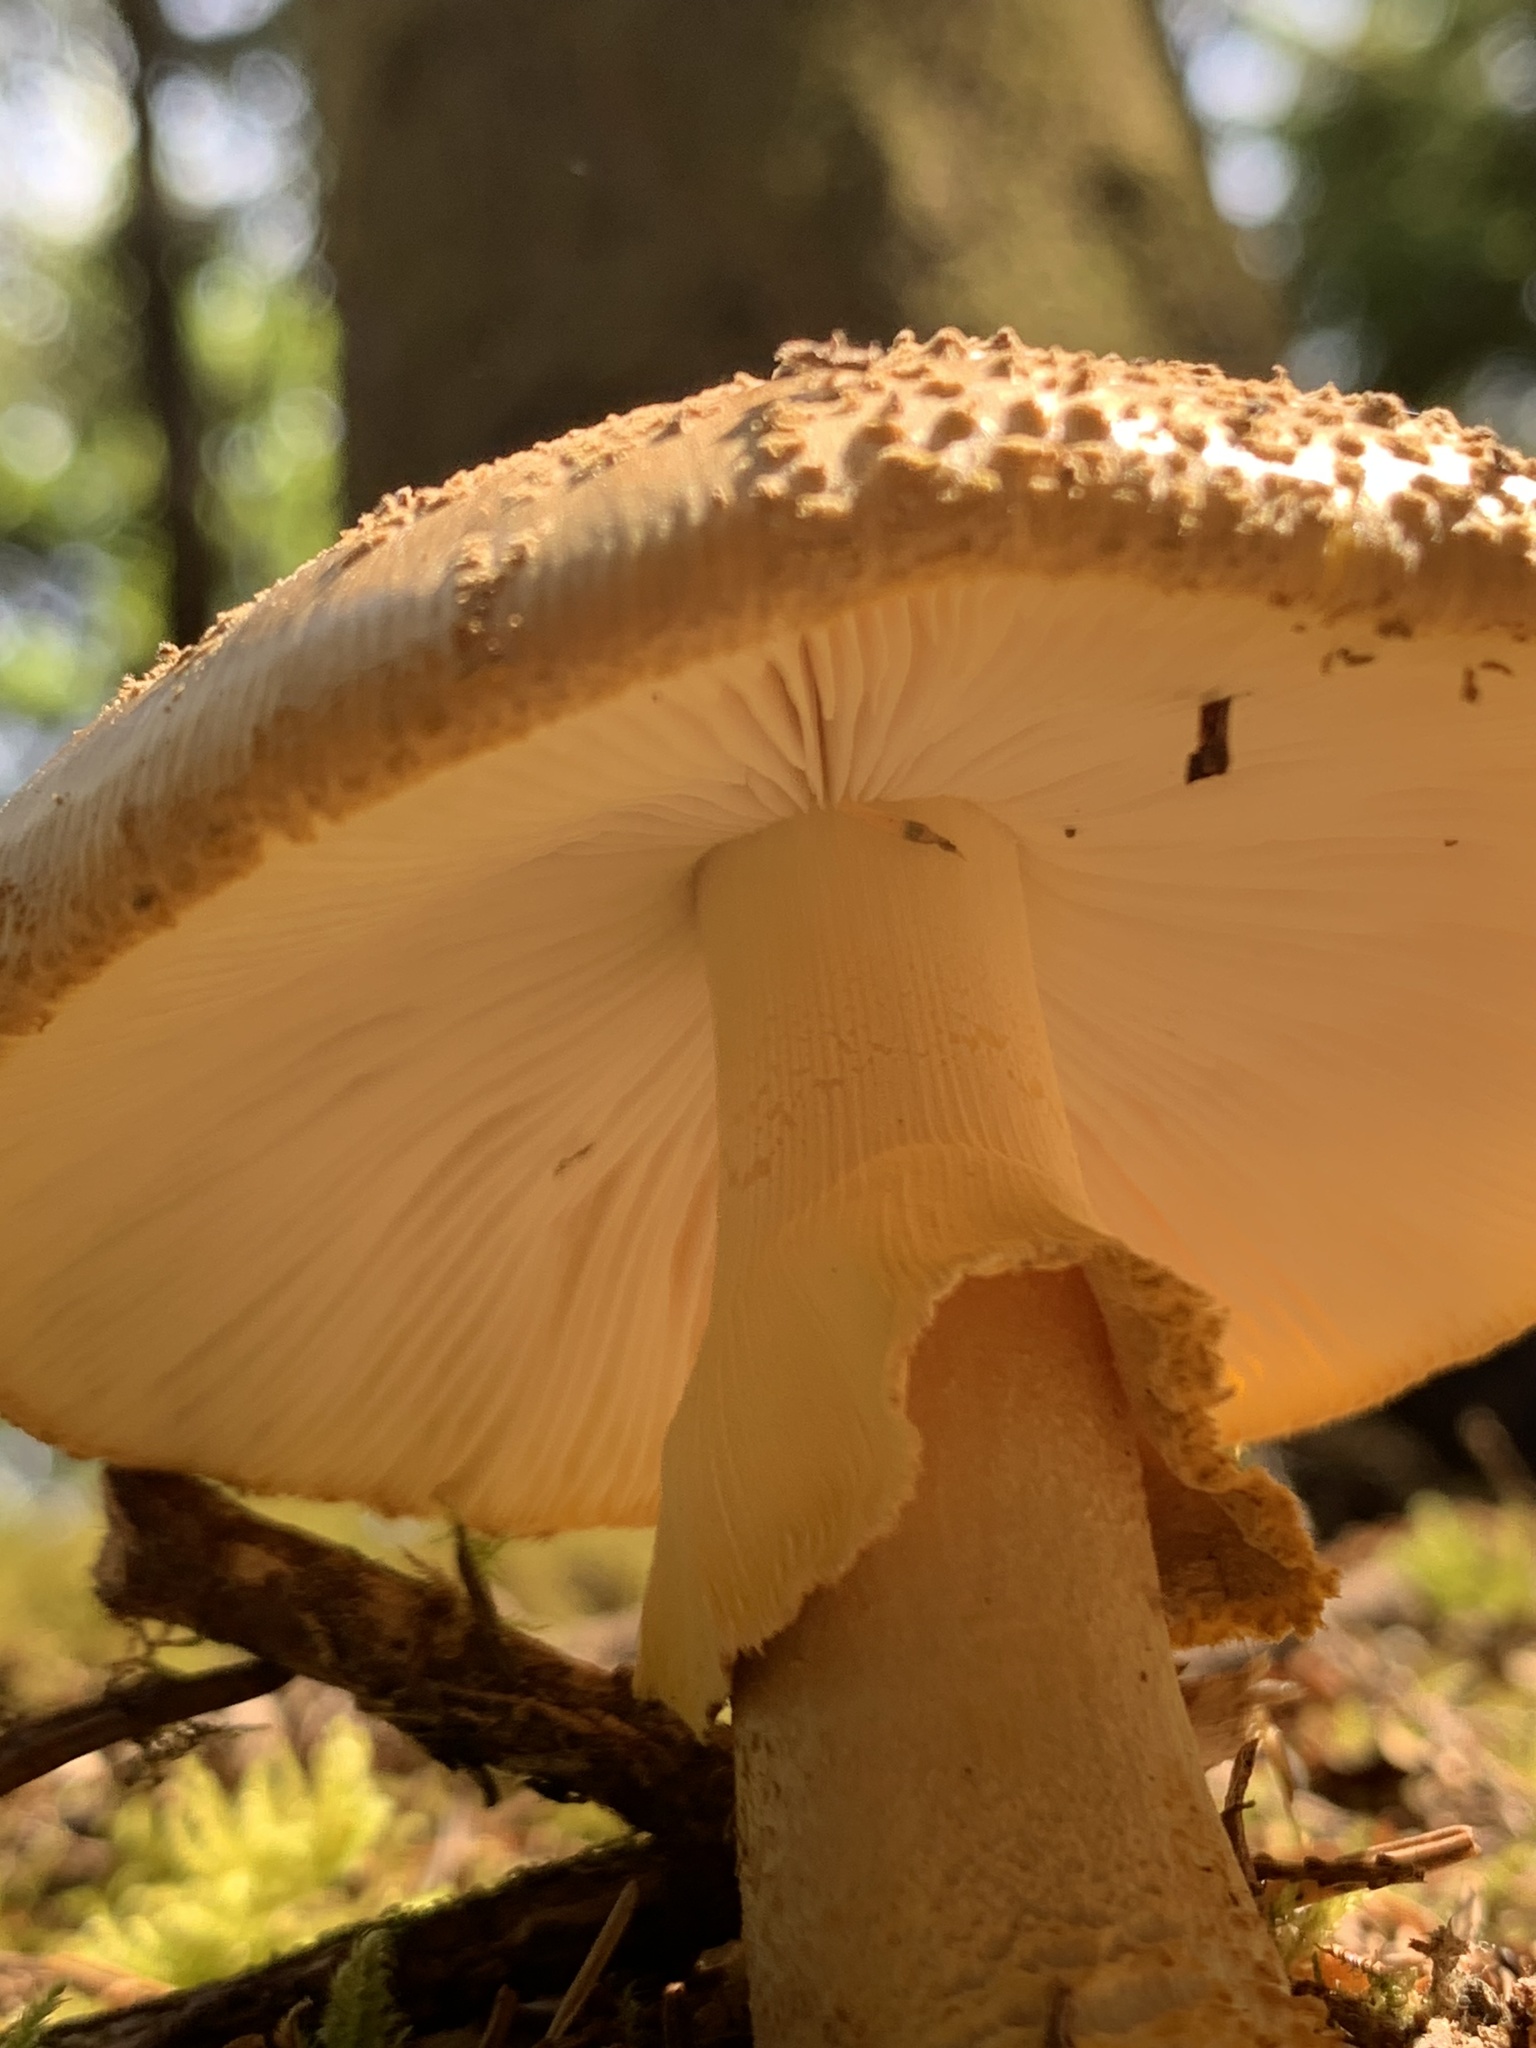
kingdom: Fungi
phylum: Basidiomycota
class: Agaricomycetes
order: Agaricales
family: Amanitaceae
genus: Amanita
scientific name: Amanita augusta
